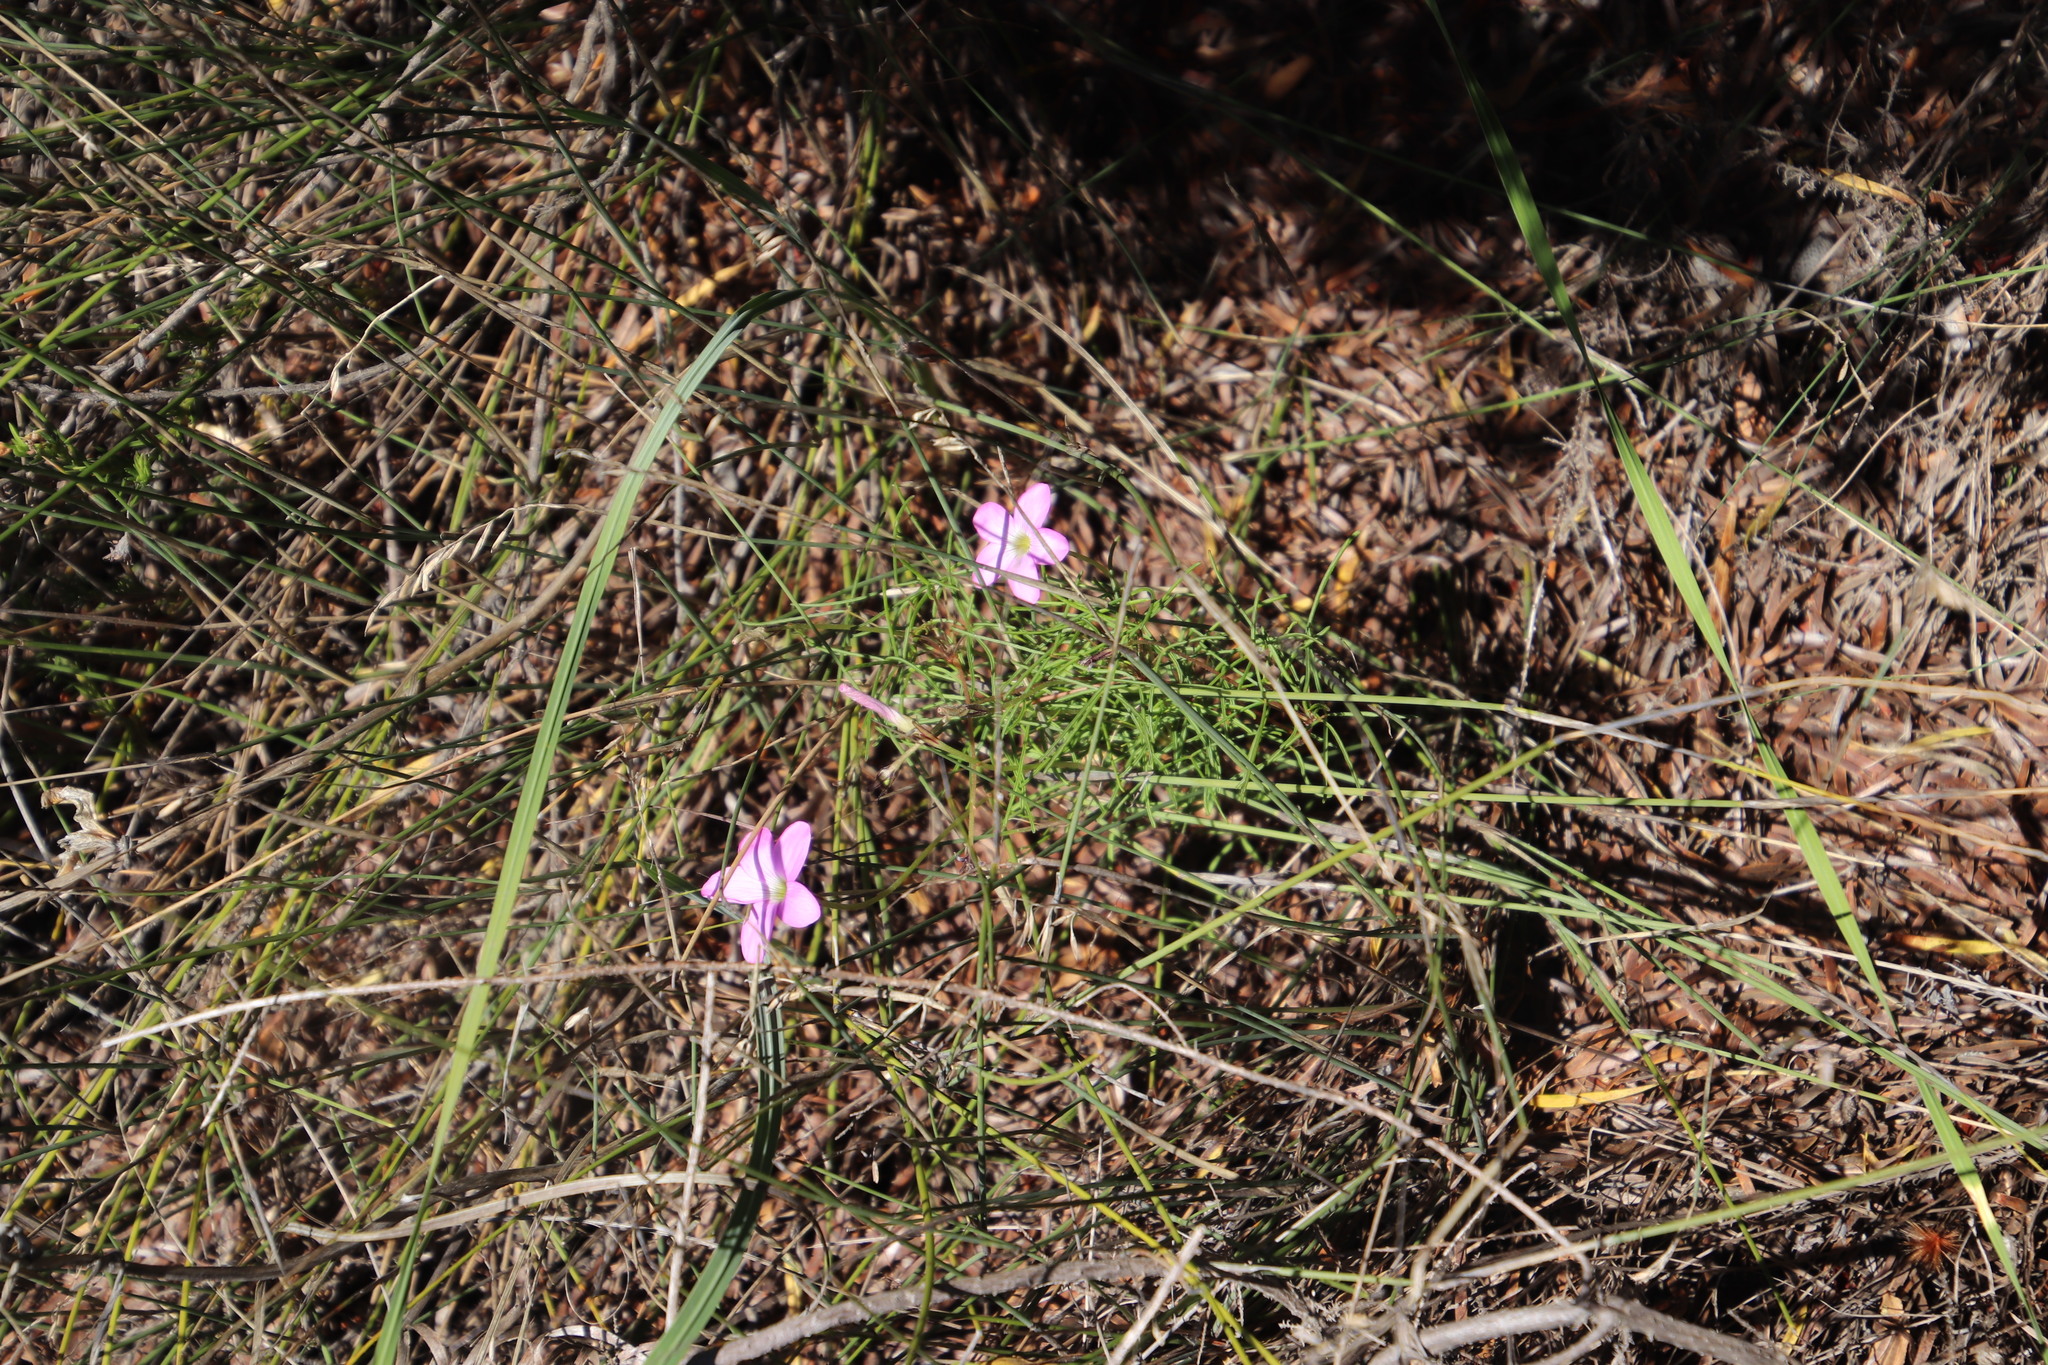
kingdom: Plantae
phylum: Tracheophyta
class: Magnoliopsida
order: Oxalidales
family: Oxalidaceae
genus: Oxalis
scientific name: Oxalis polyphylla
